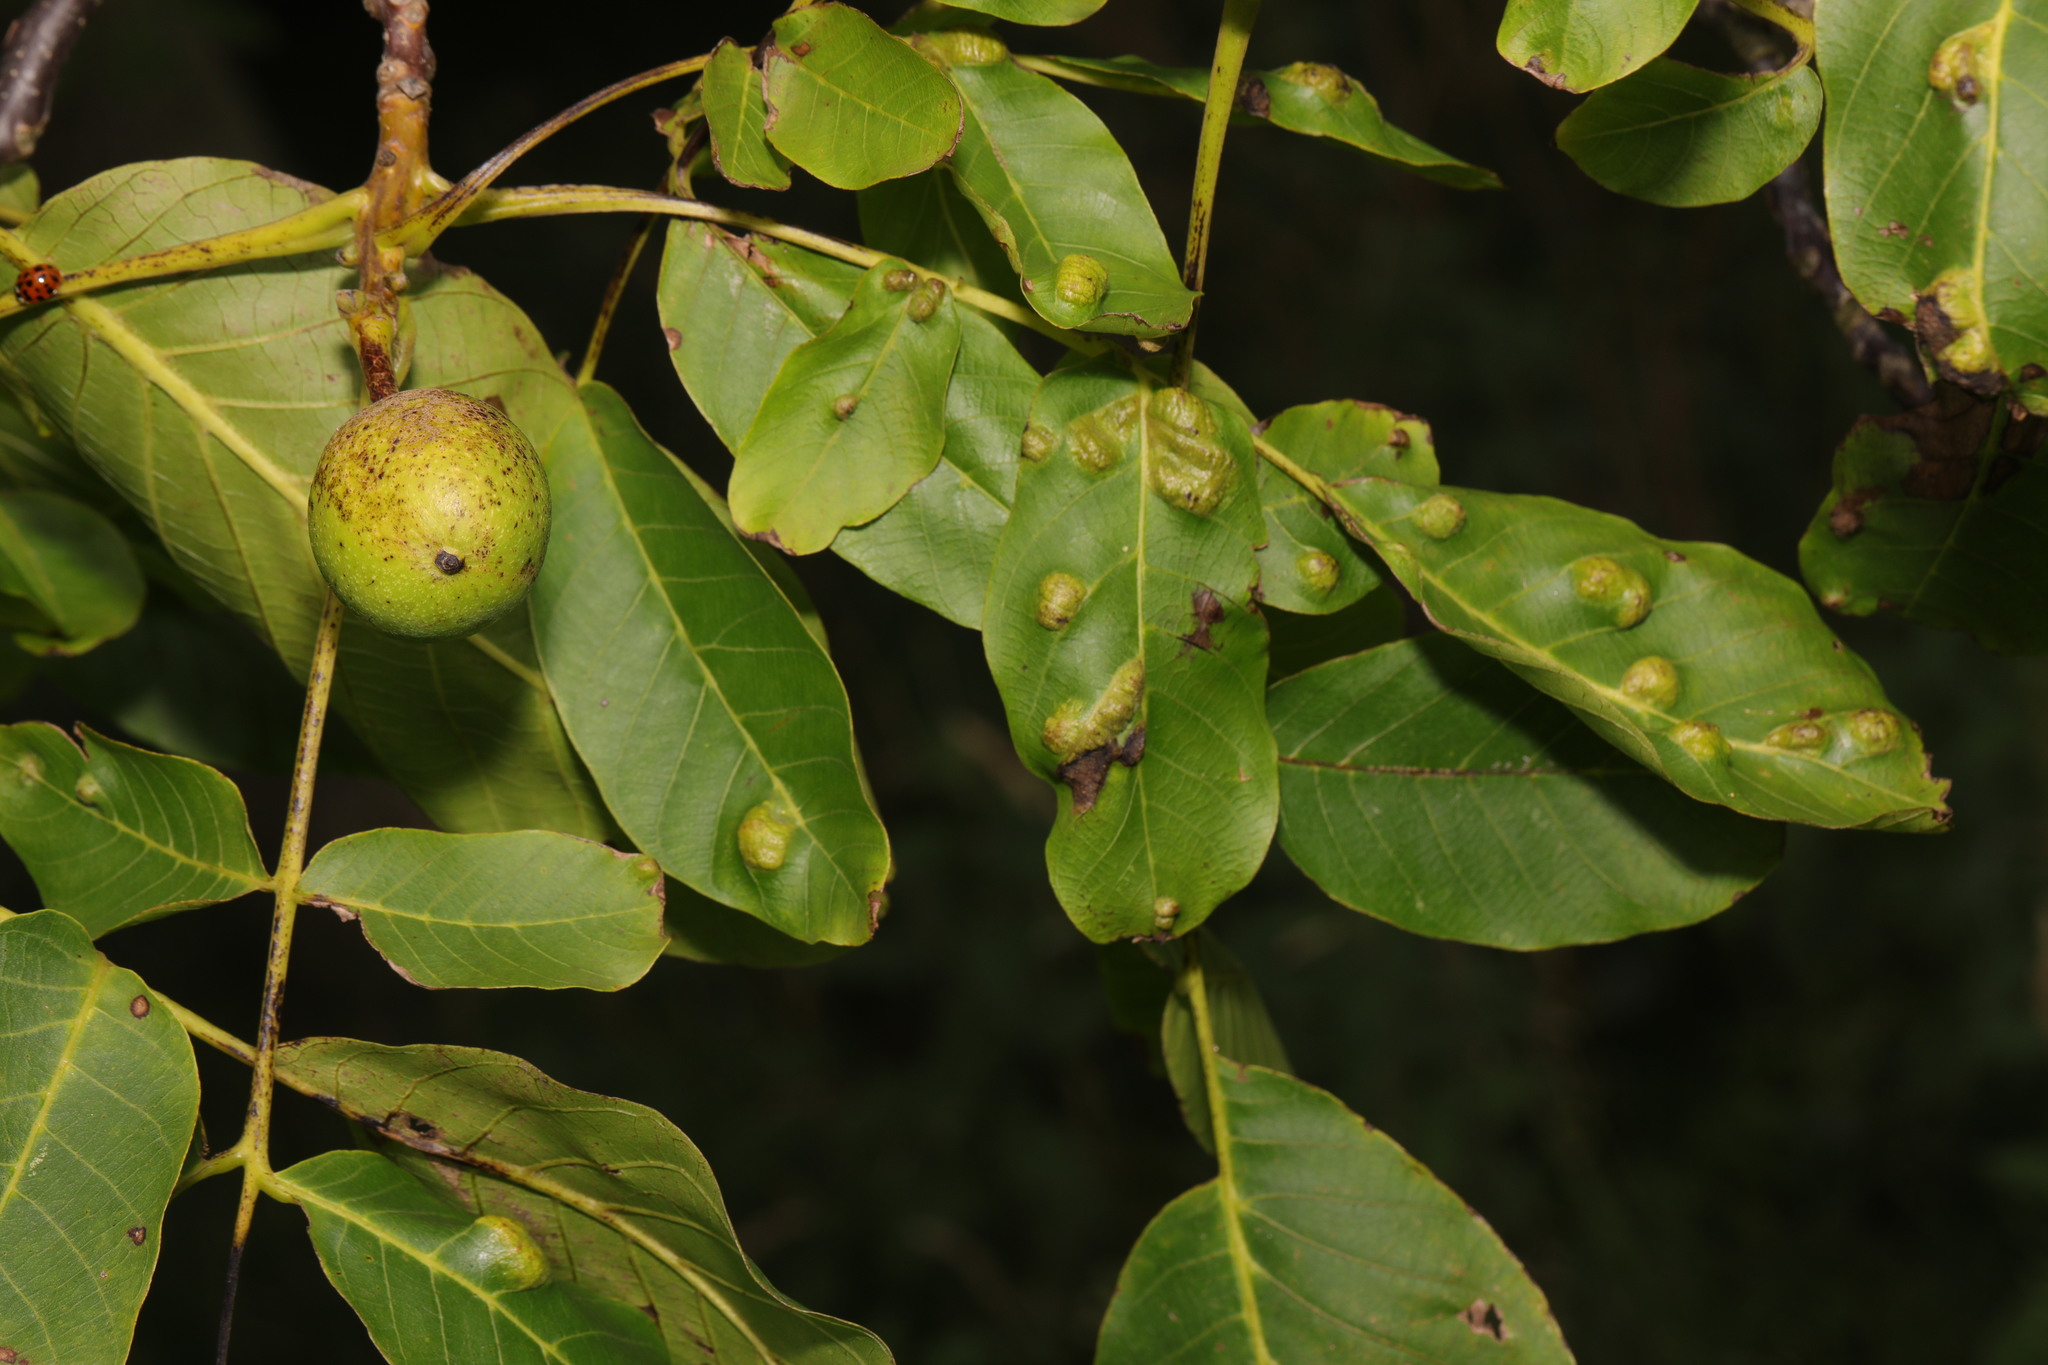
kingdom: Plantae
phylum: Tracheophyta
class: Magnoliopsida
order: Fagales
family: Juglandaceae
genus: Juglans
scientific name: Juglans regia
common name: Walnut
